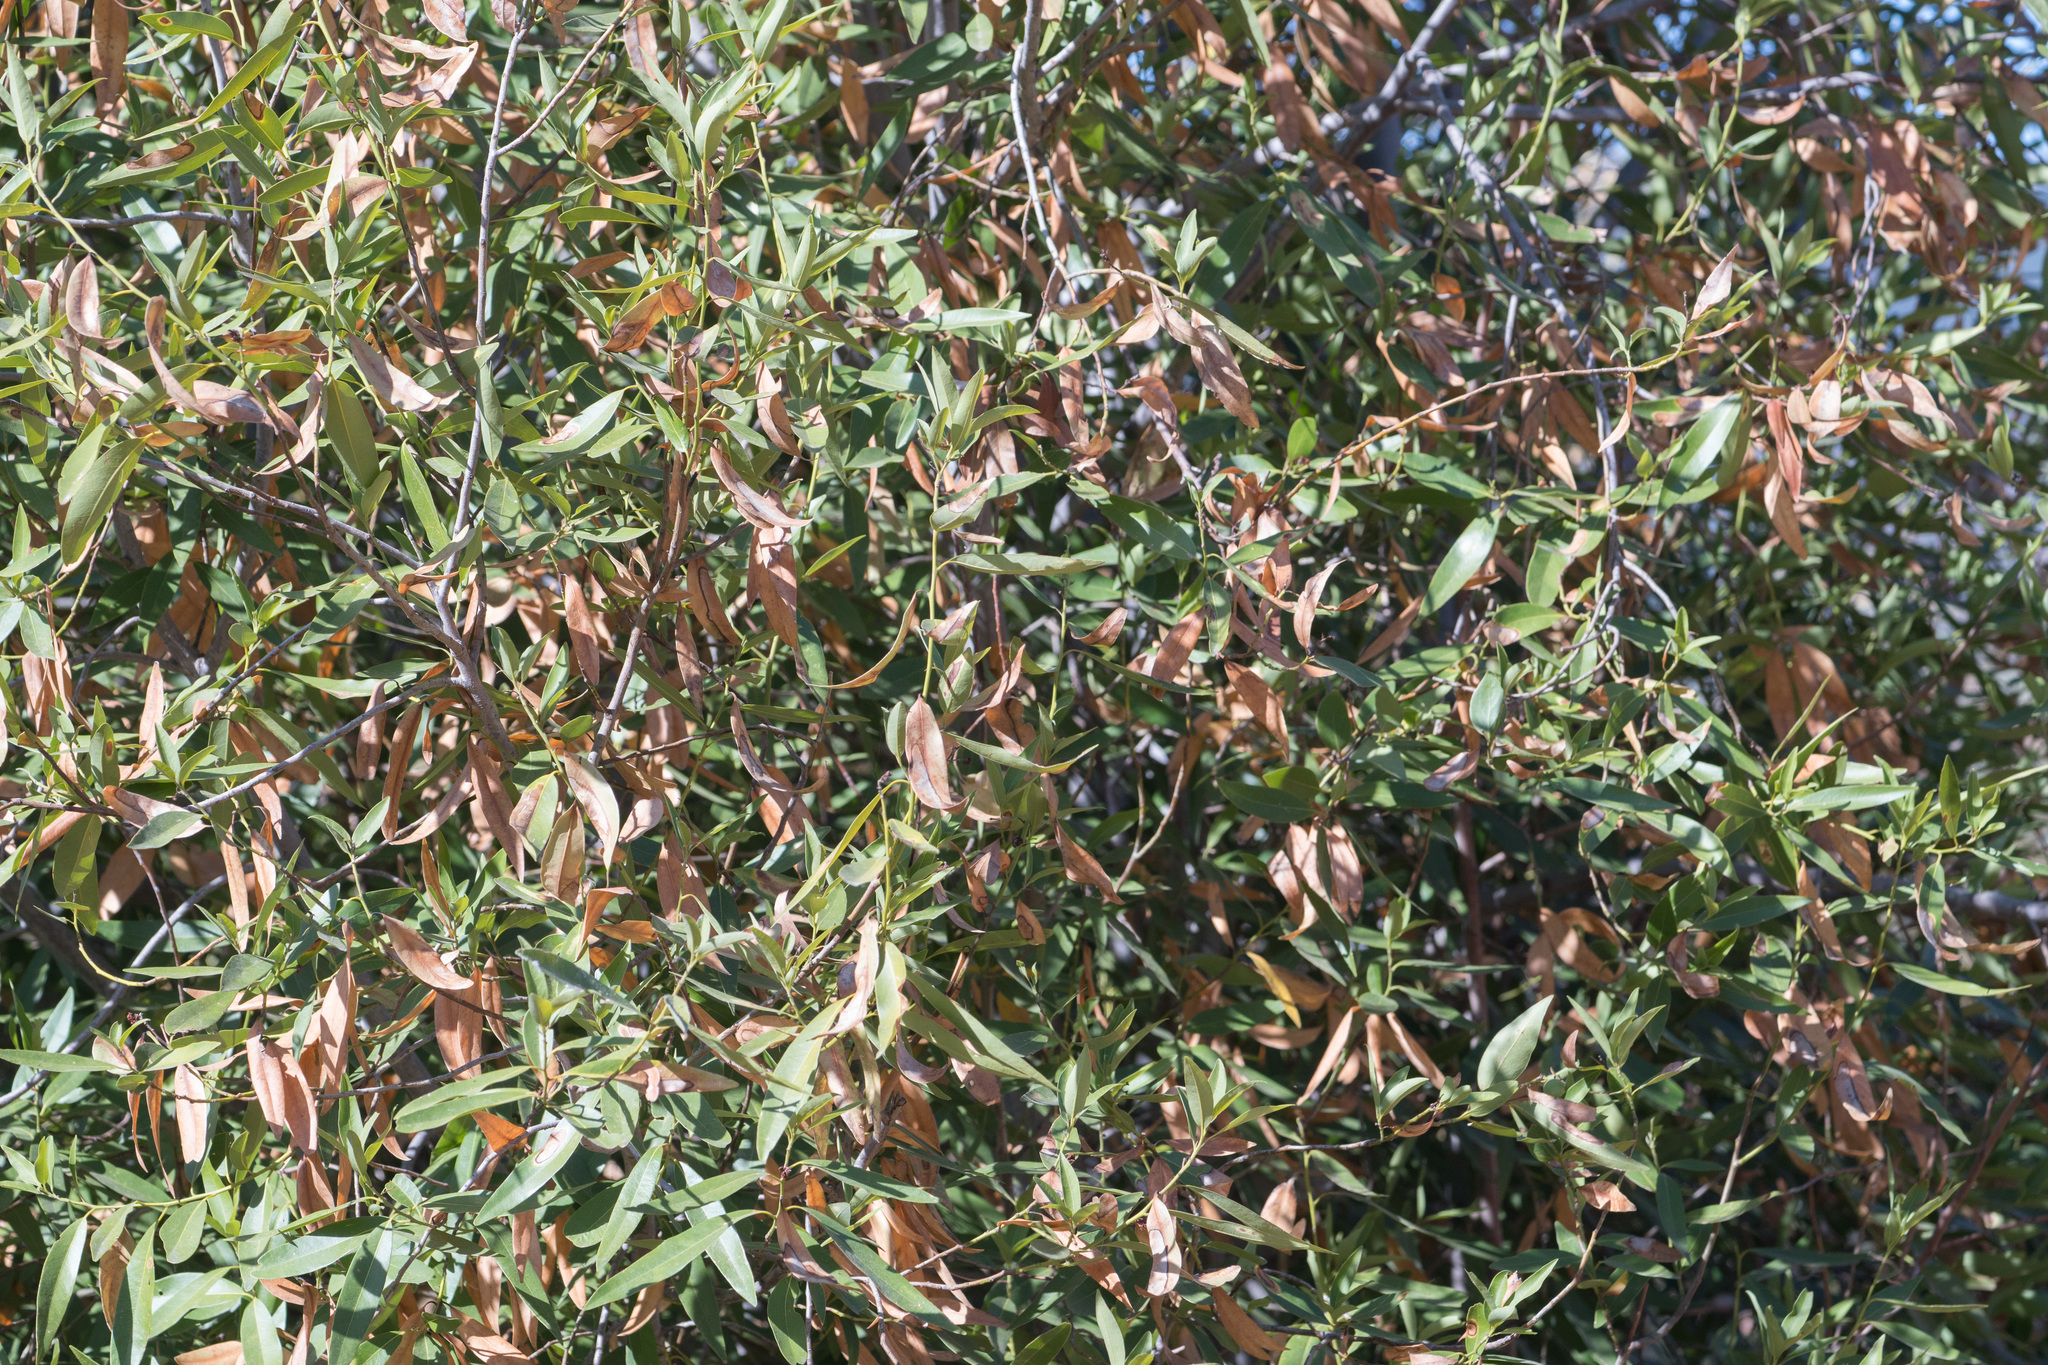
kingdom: Plantae
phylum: Tracheophyta
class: Magnoliopsida
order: Laurales
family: Lauraceae
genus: Umbellularia
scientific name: Umbellularia californica
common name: California bay
